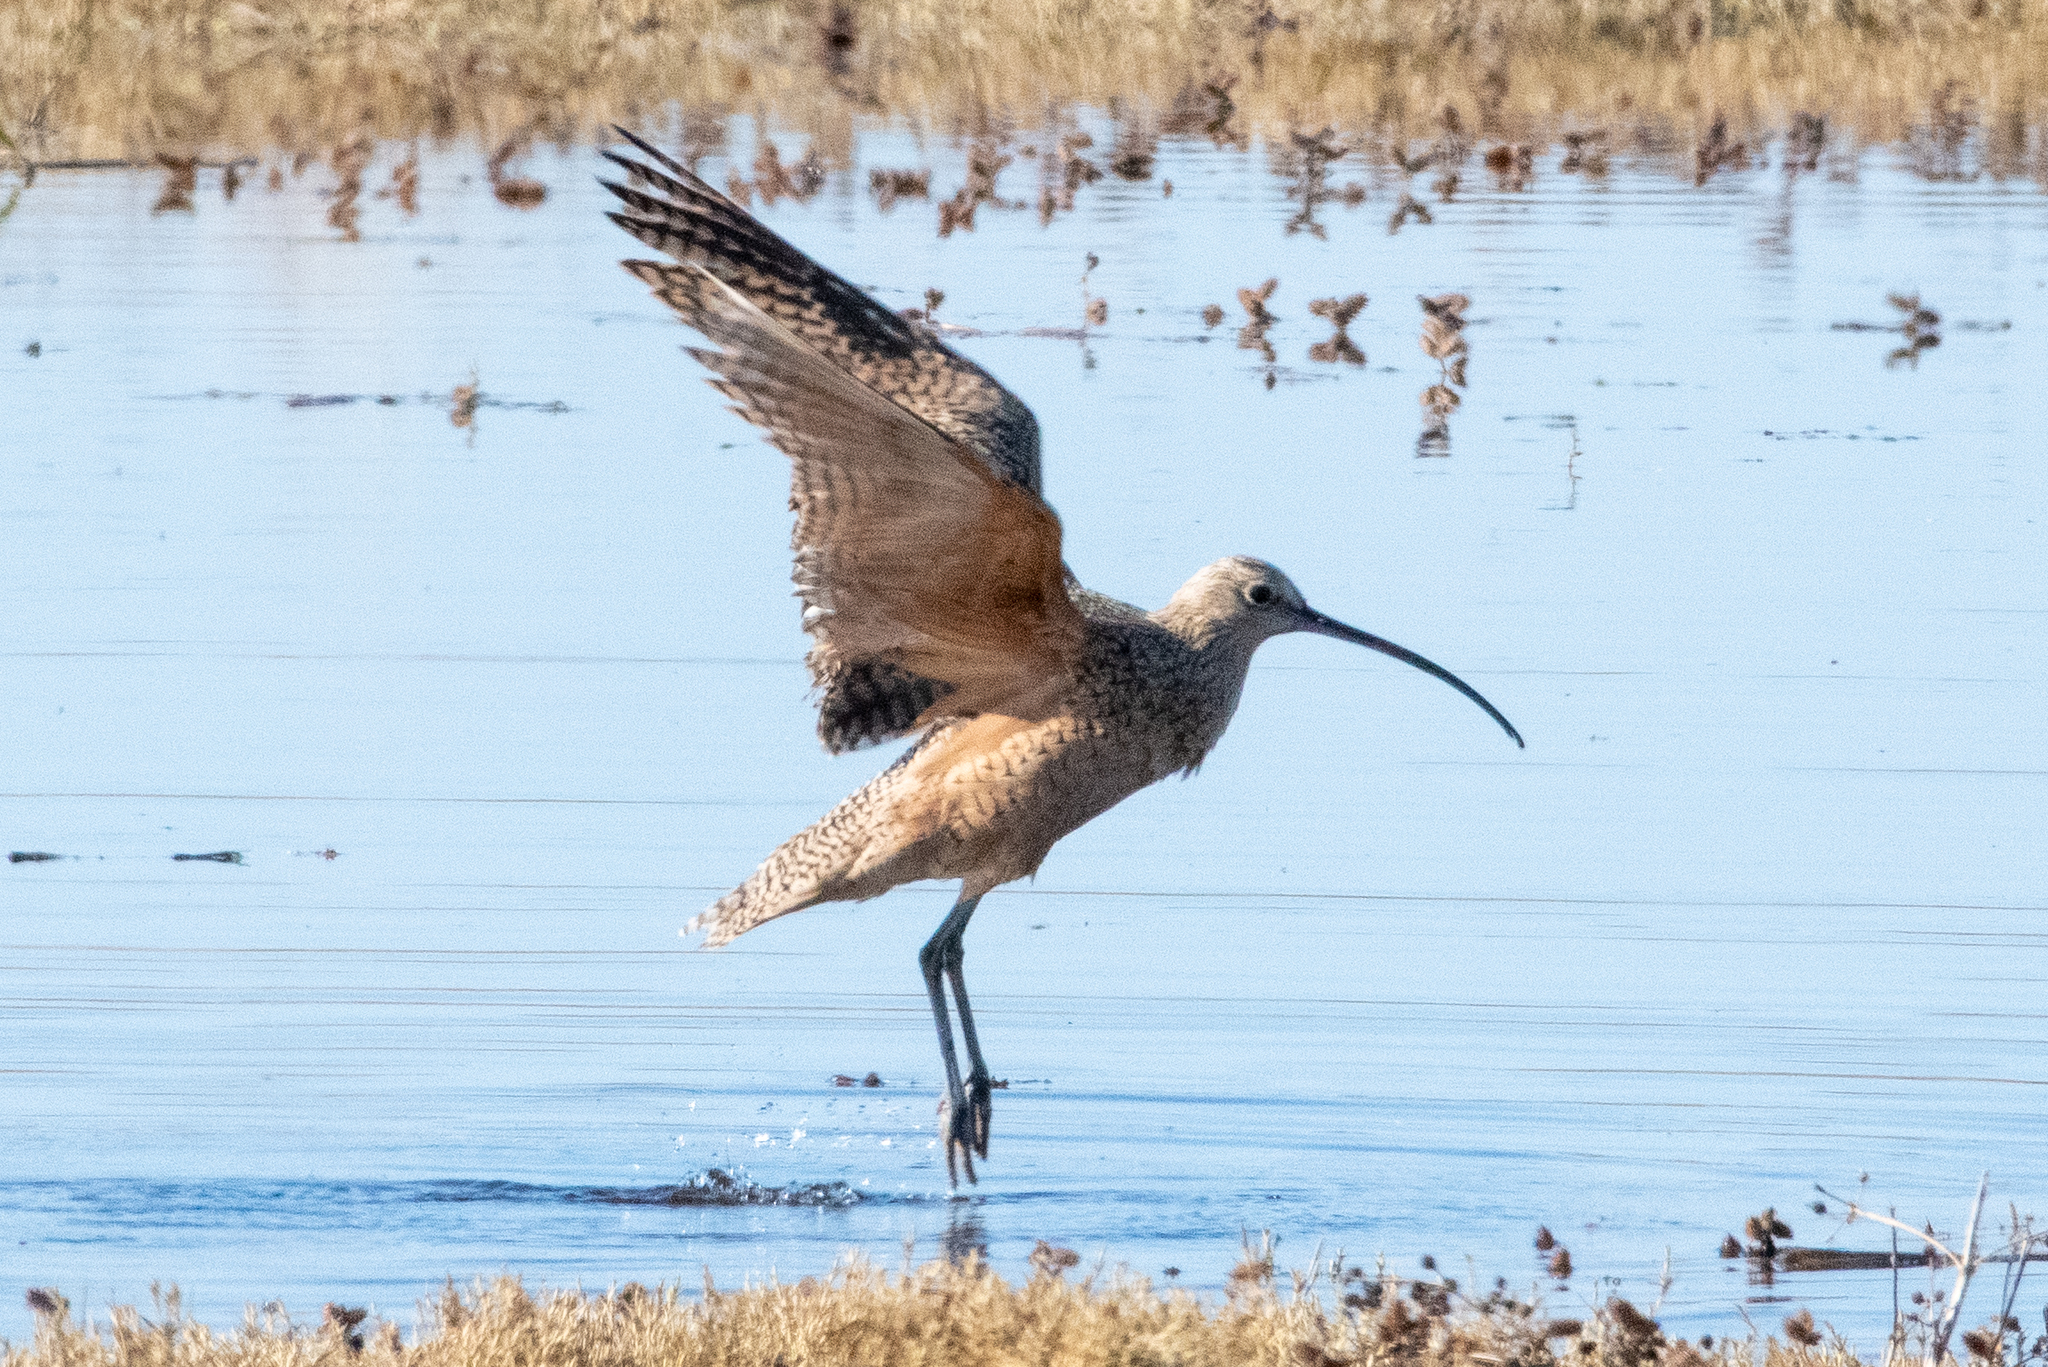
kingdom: Animalia
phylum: Chordata
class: Aves
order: Charadriiformes
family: Scolopacidae
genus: Numenius
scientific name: Numenius americanus
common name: Long-billed curlew
